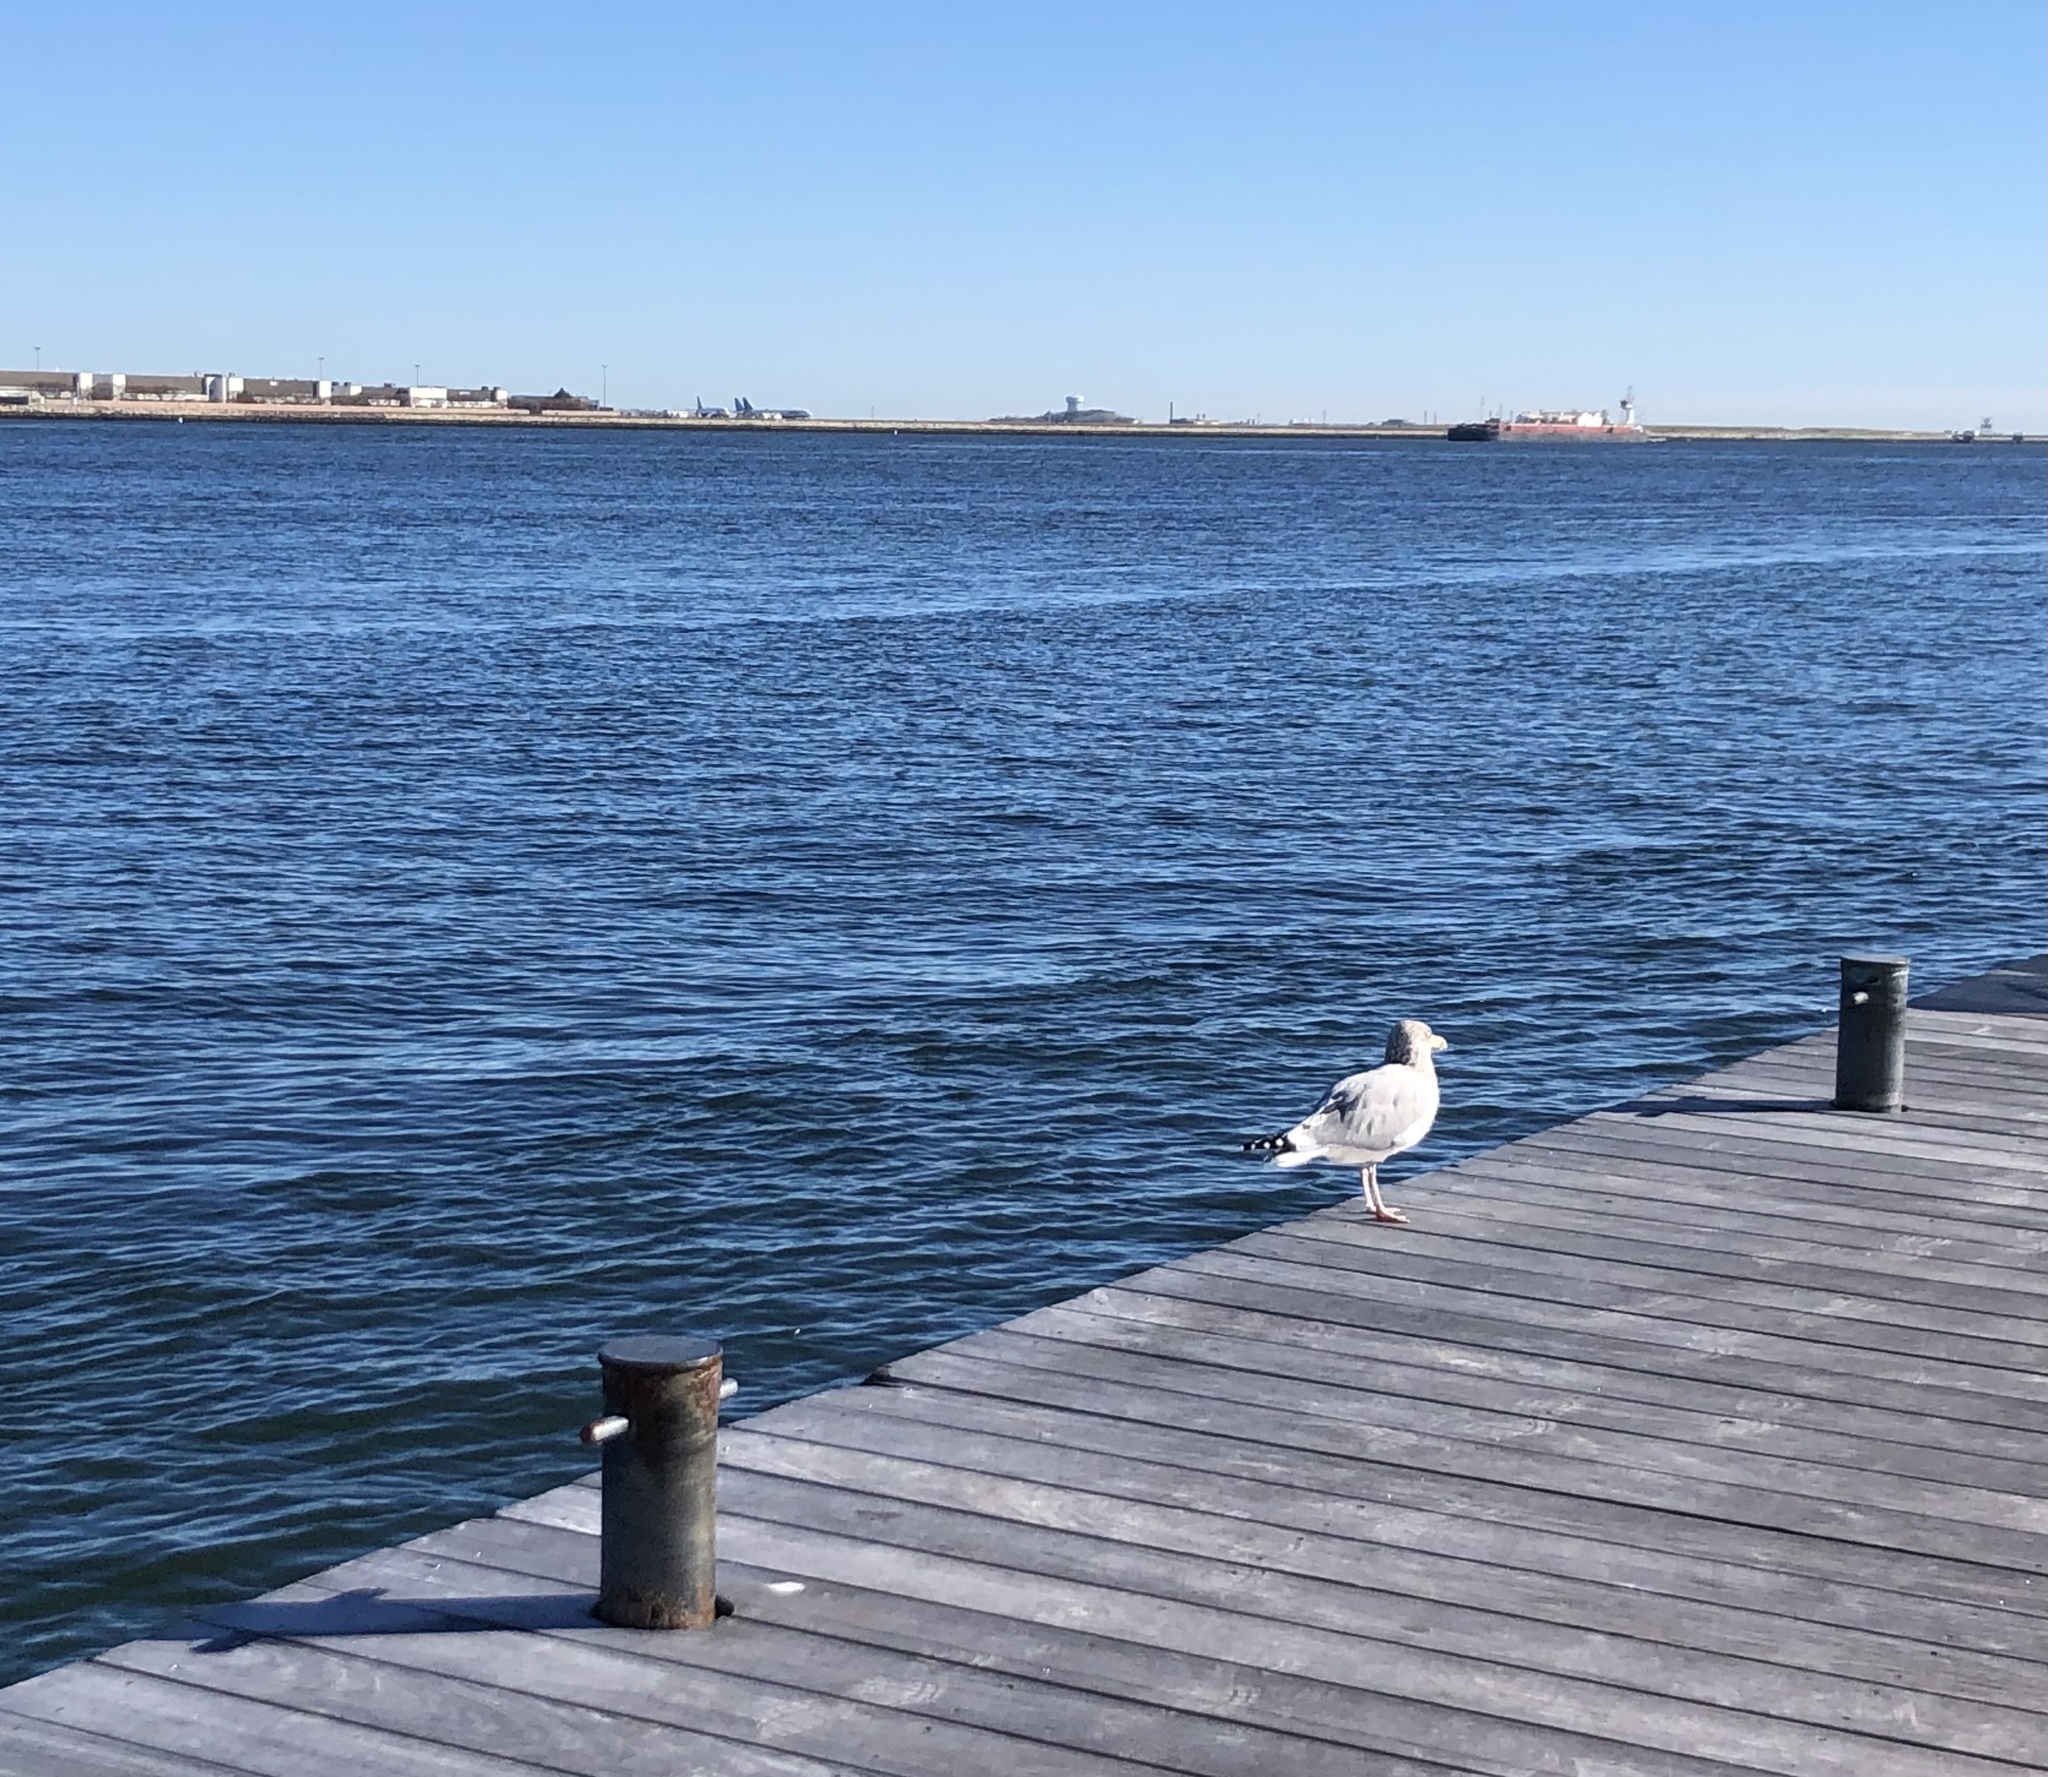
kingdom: Animalia
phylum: Chordata
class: Aves
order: Charadriiformes
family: Laridae
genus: Larus
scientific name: Larus argentatus
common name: Herring gull
